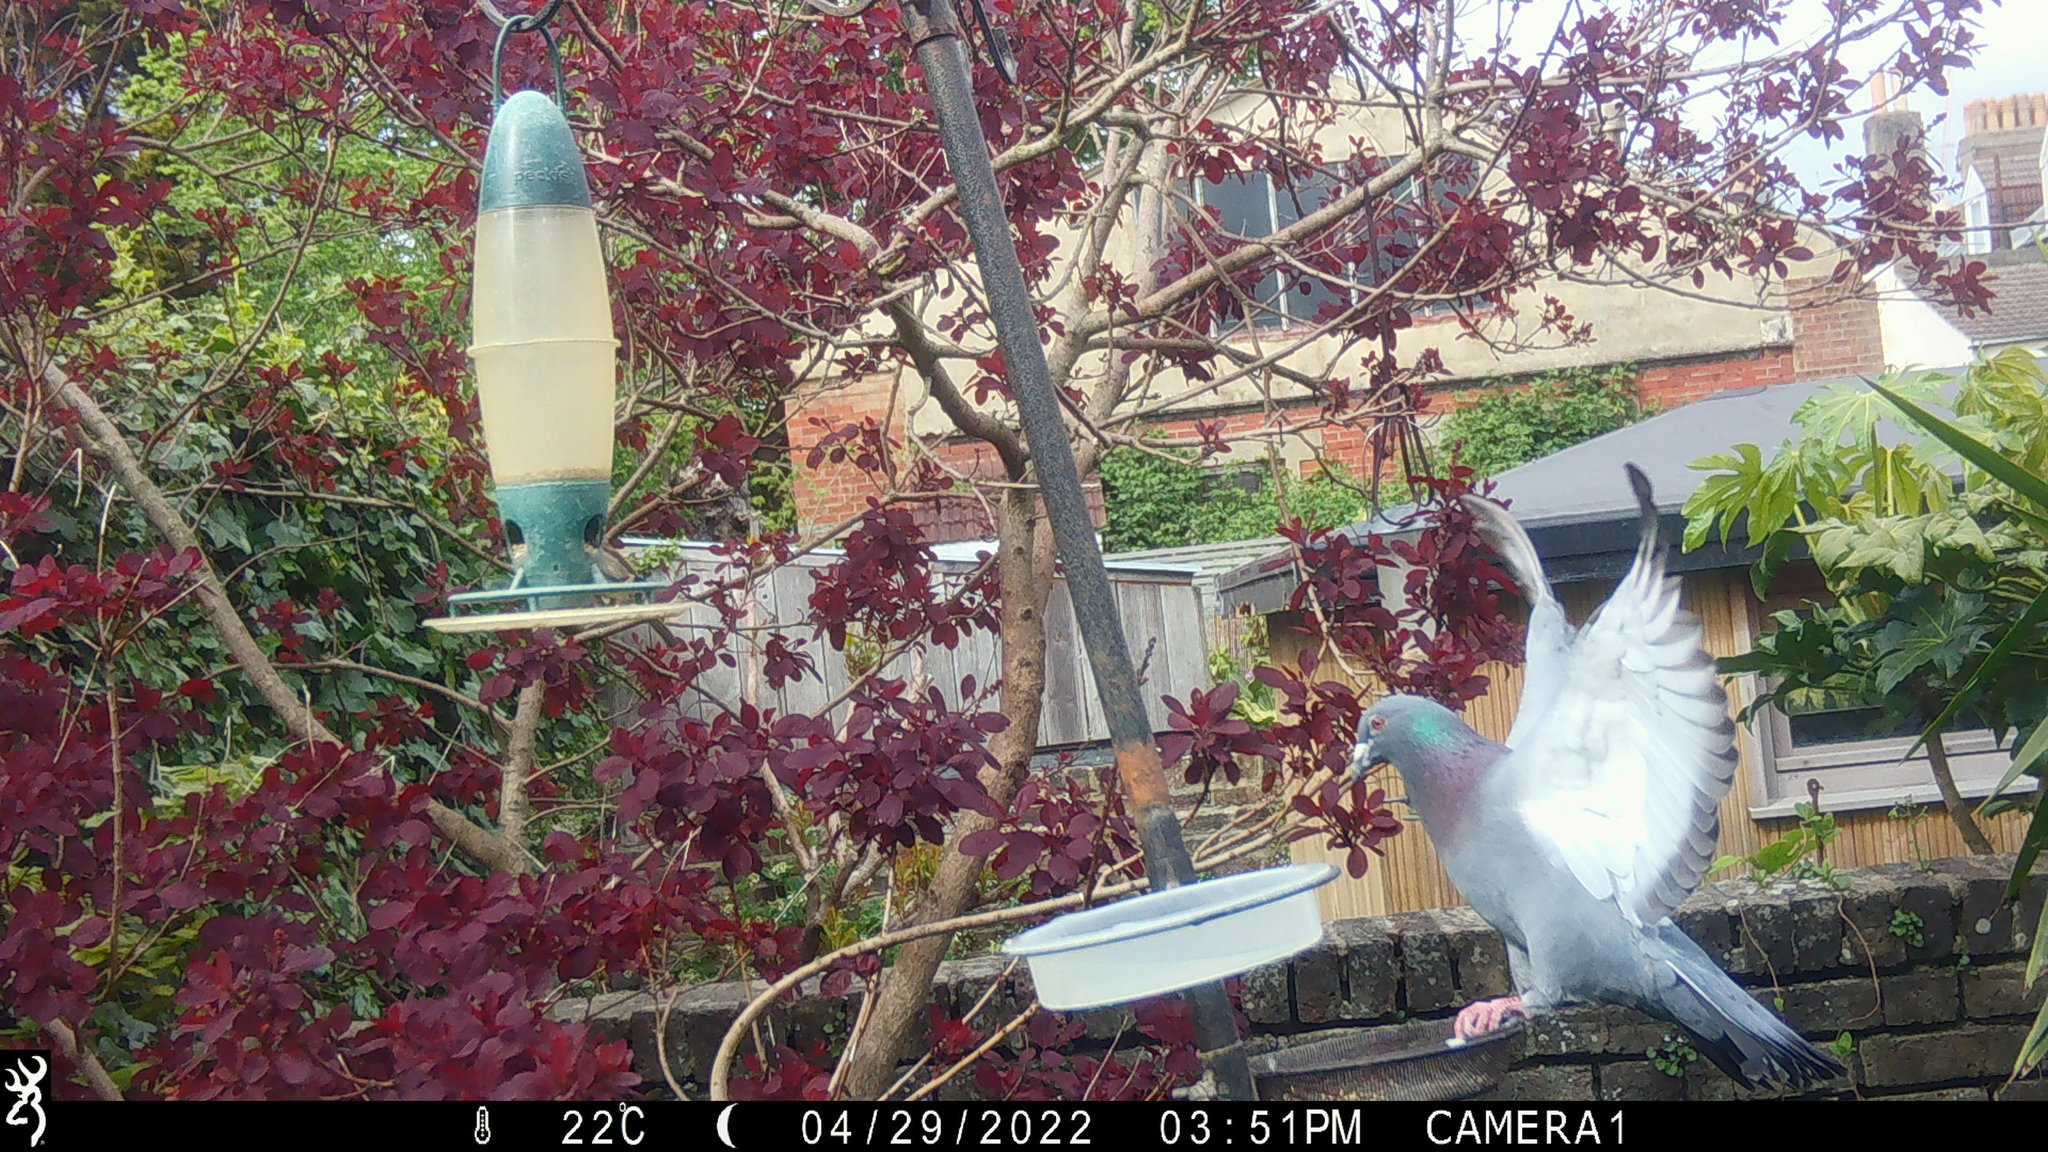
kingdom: Animalia
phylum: Chordata
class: Aves
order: Columbiformes
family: Columbidae
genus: Columba
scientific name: Columba livia
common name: Rock pigeon
